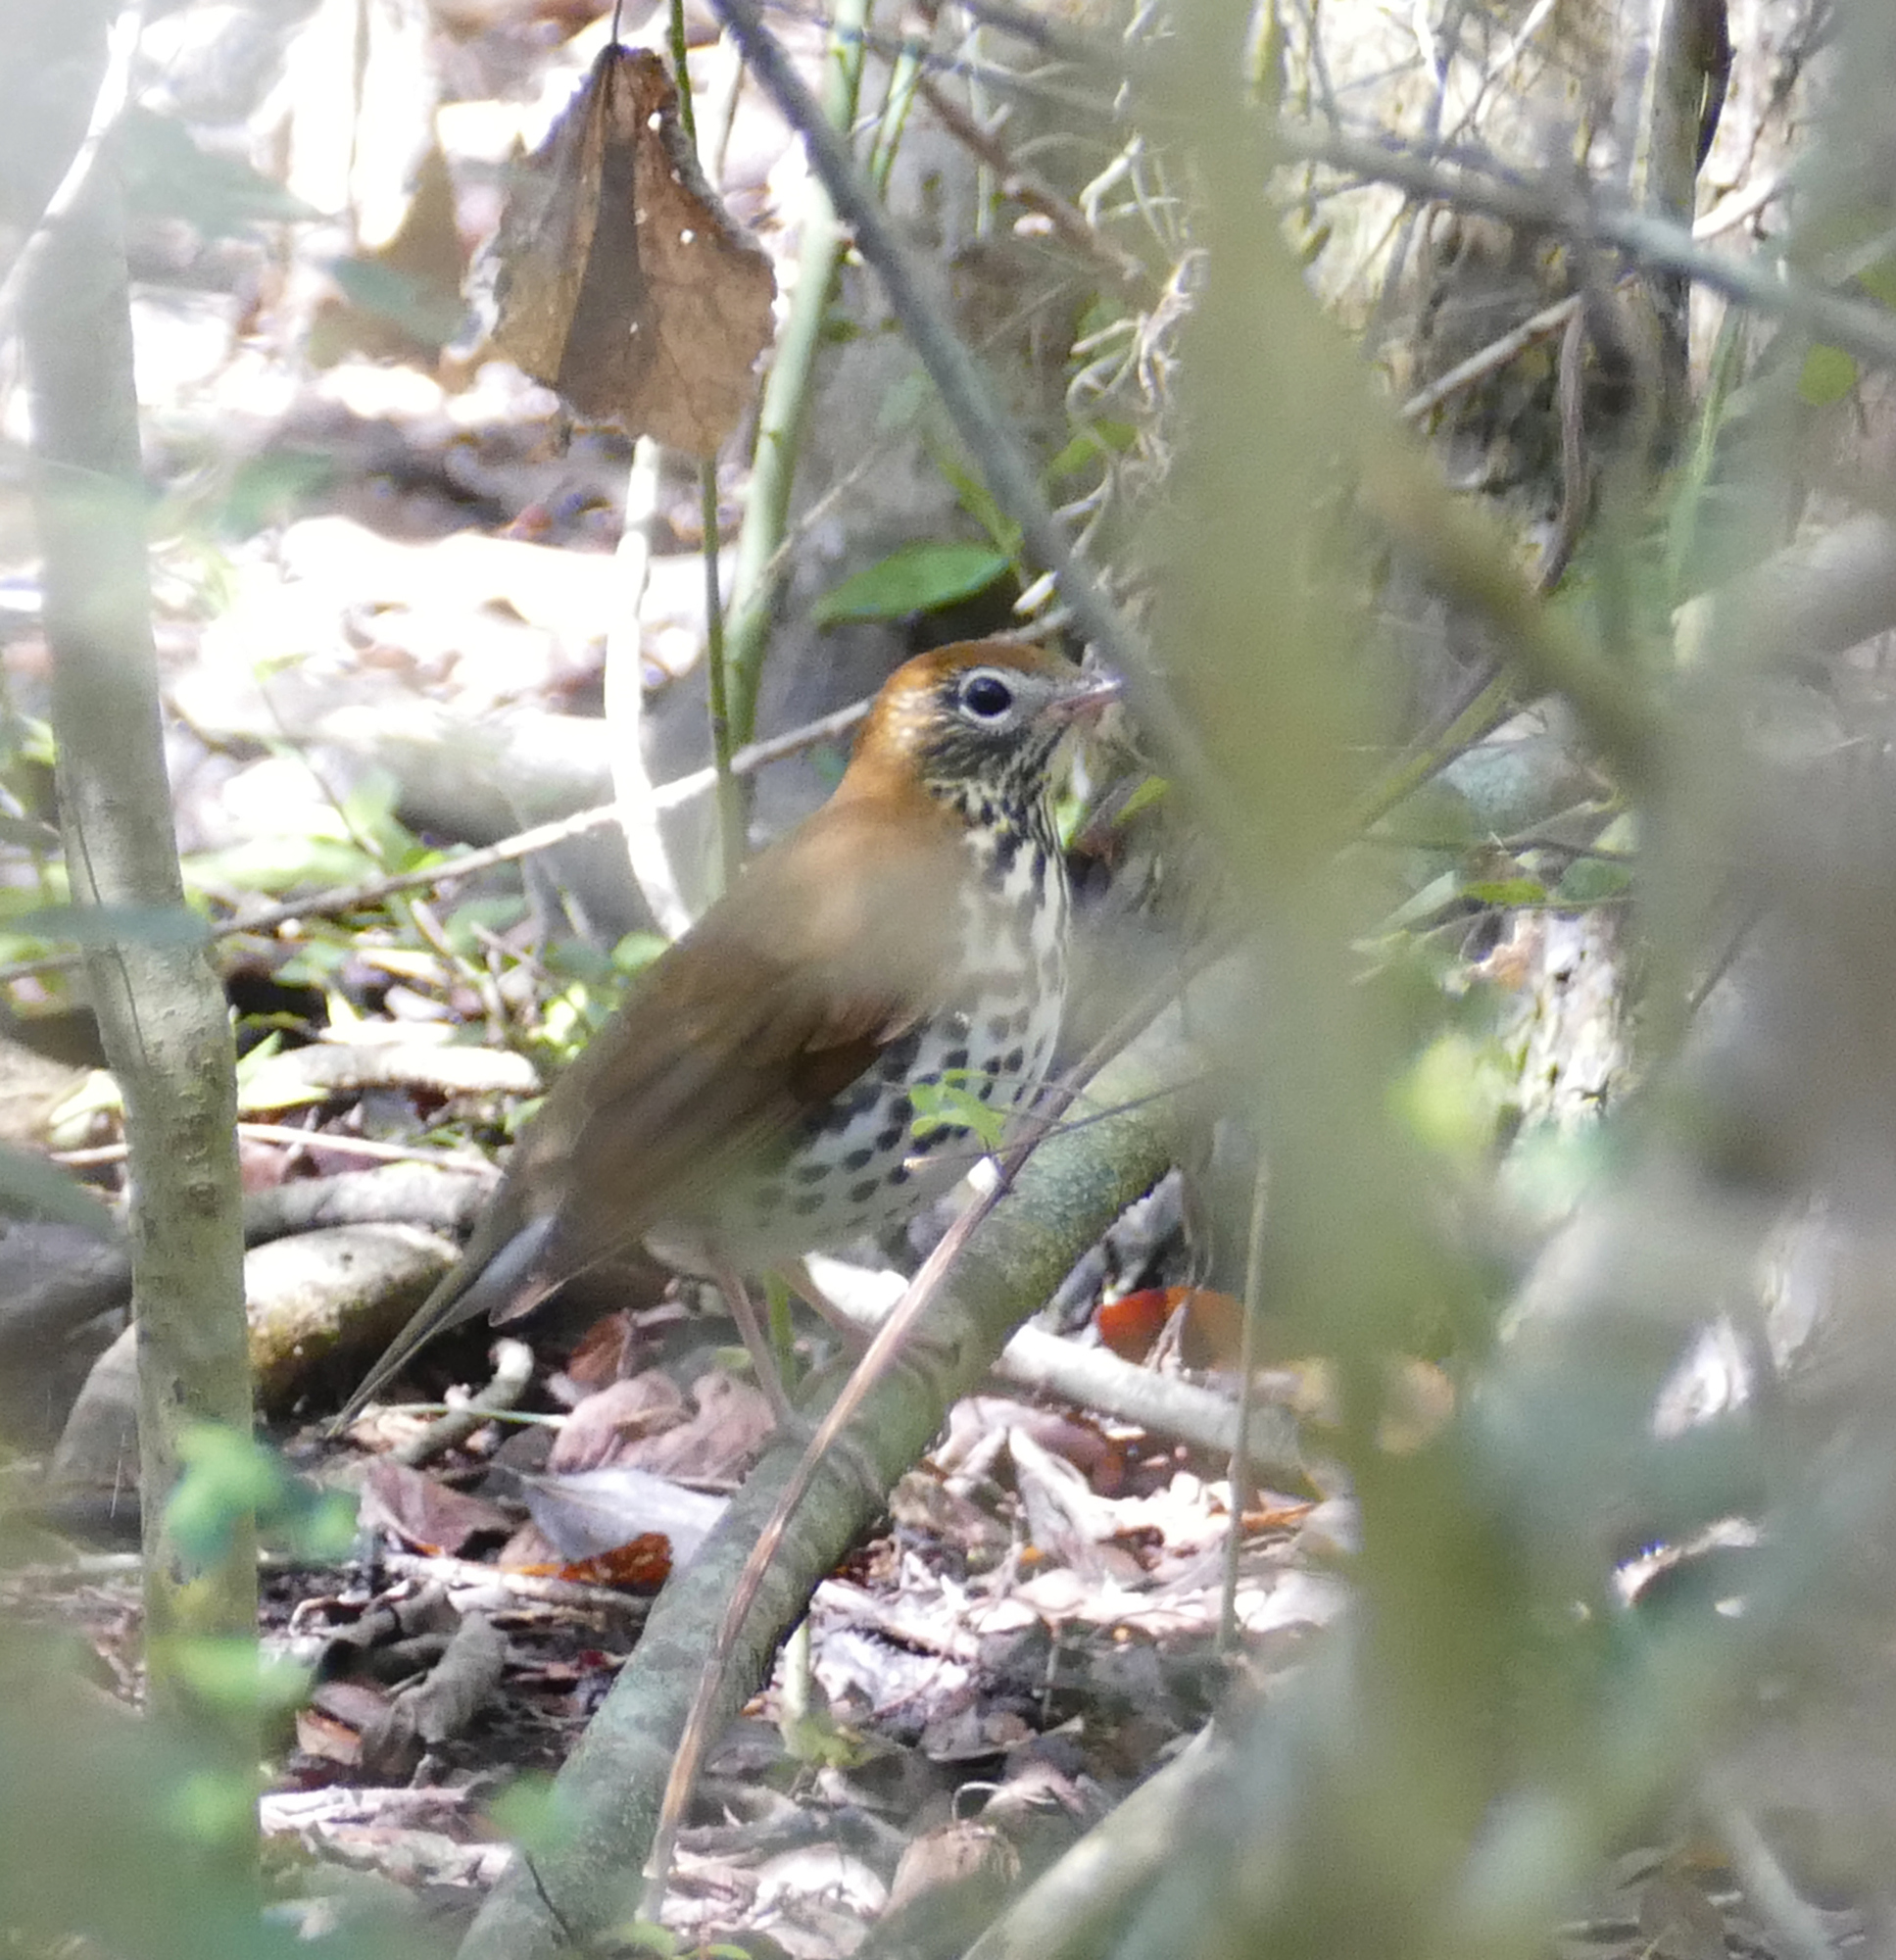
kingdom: Animalia
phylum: Chordata
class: Aves
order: Passeriformes
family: Turdidae
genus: Hylocichla
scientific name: Hylocichla mustelina
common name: Wood thrush
